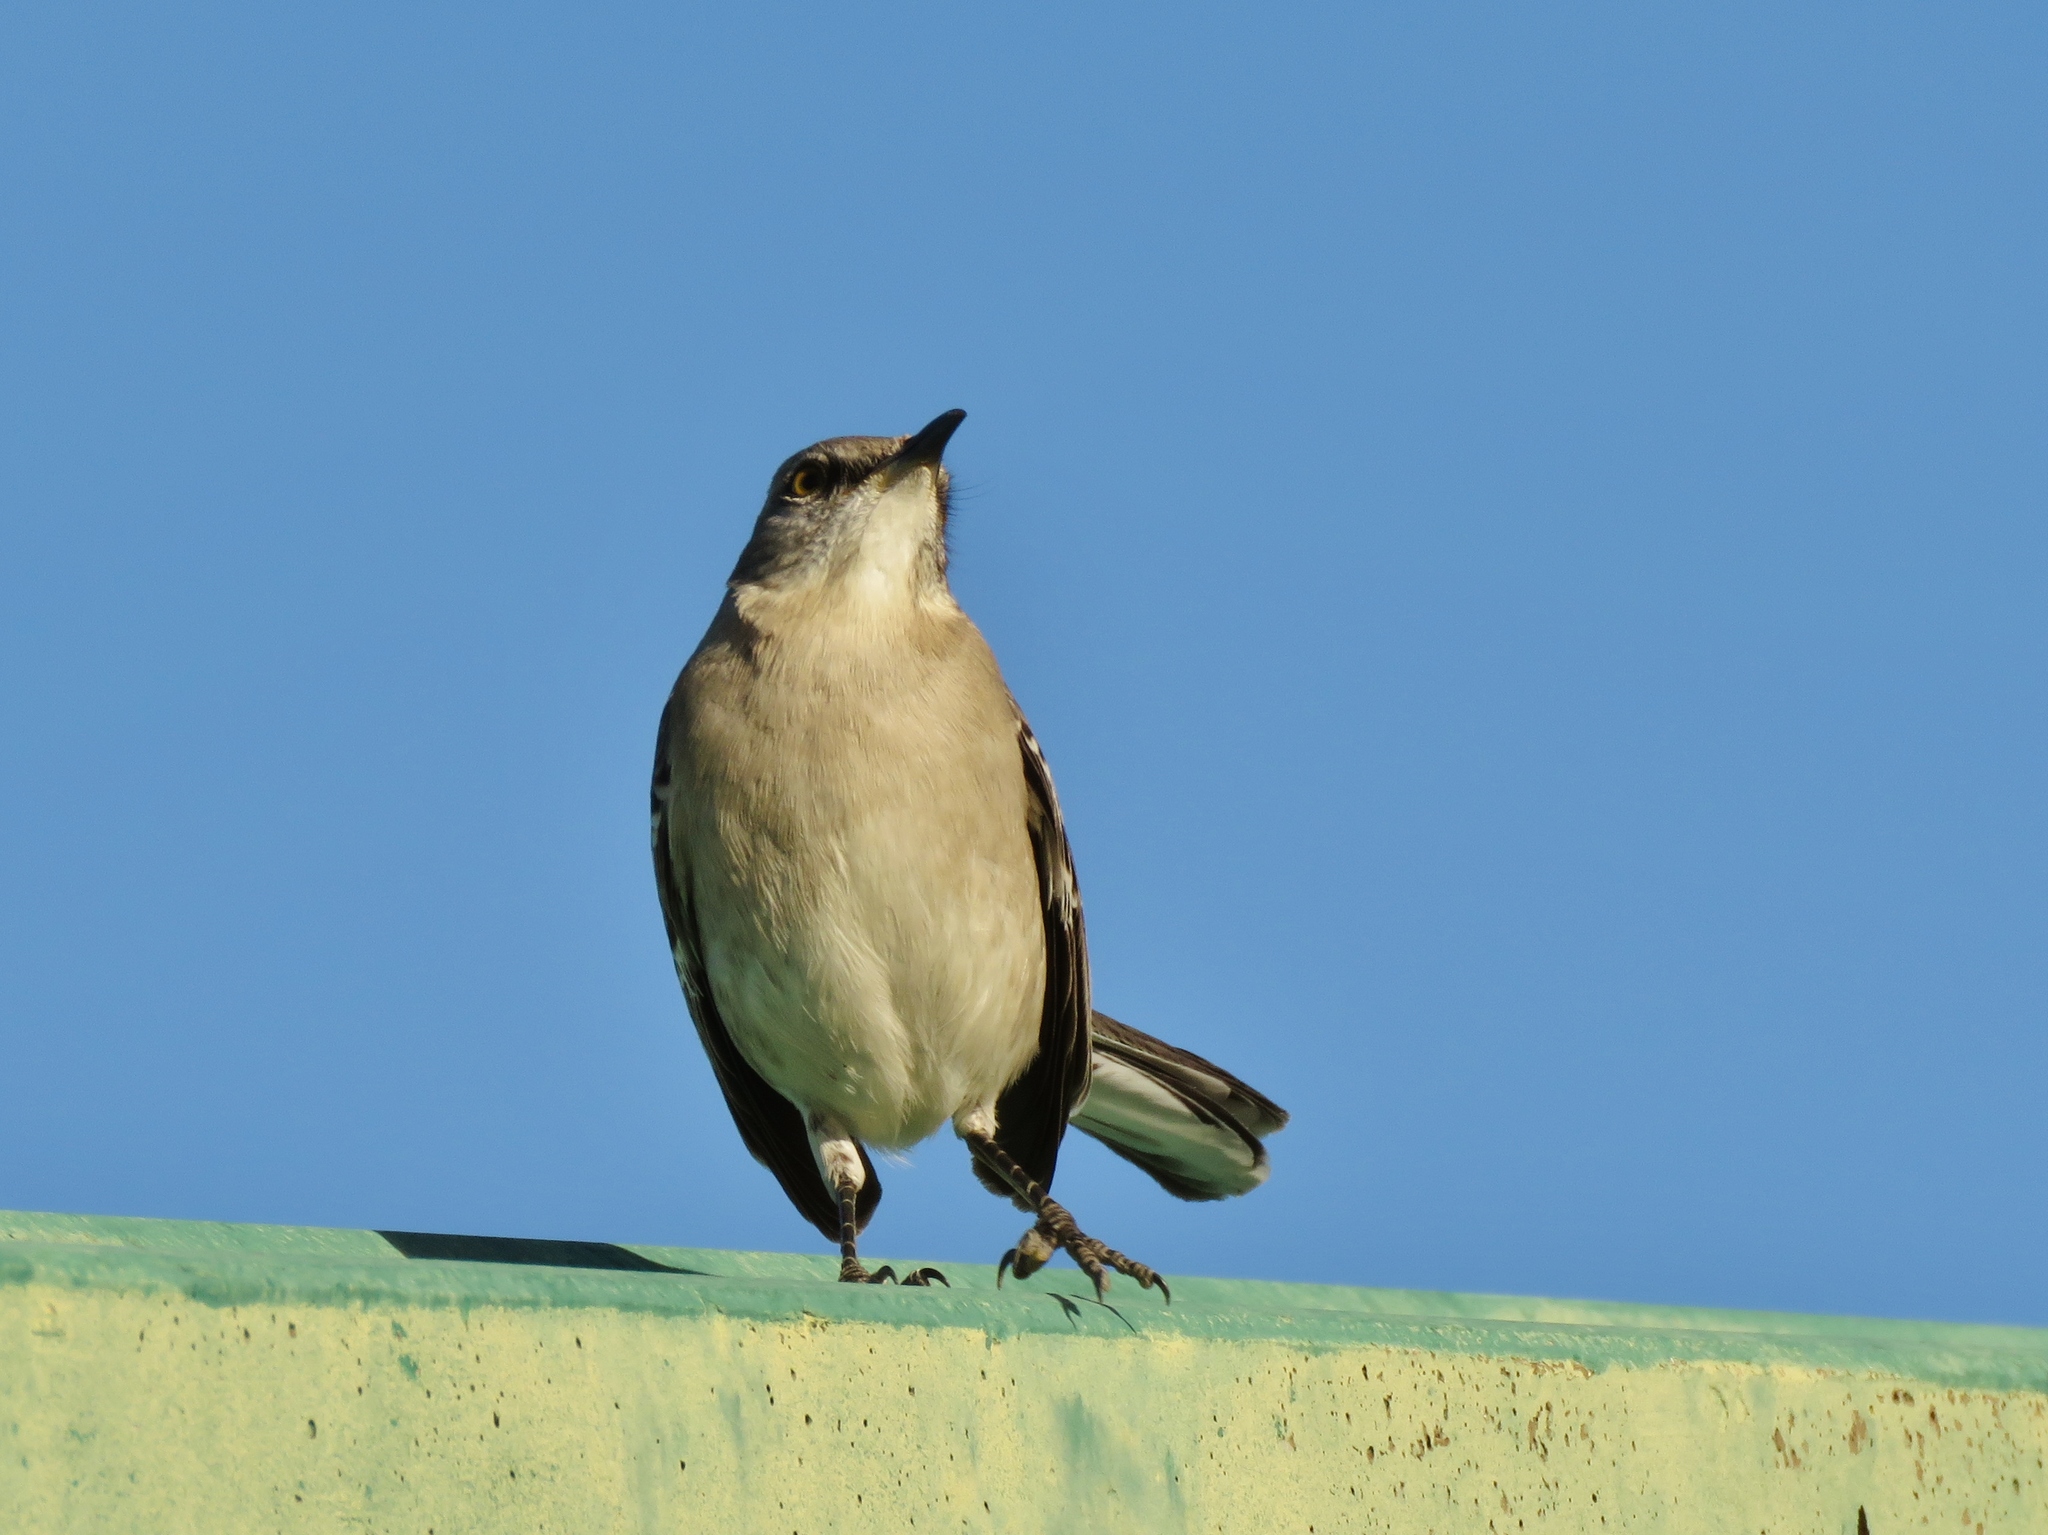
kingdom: Animalia
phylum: Chordata
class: Aves
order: Passeriformes
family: Mimidae
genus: Mimus
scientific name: Mimus polyglottos
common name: Northern mockingbird
